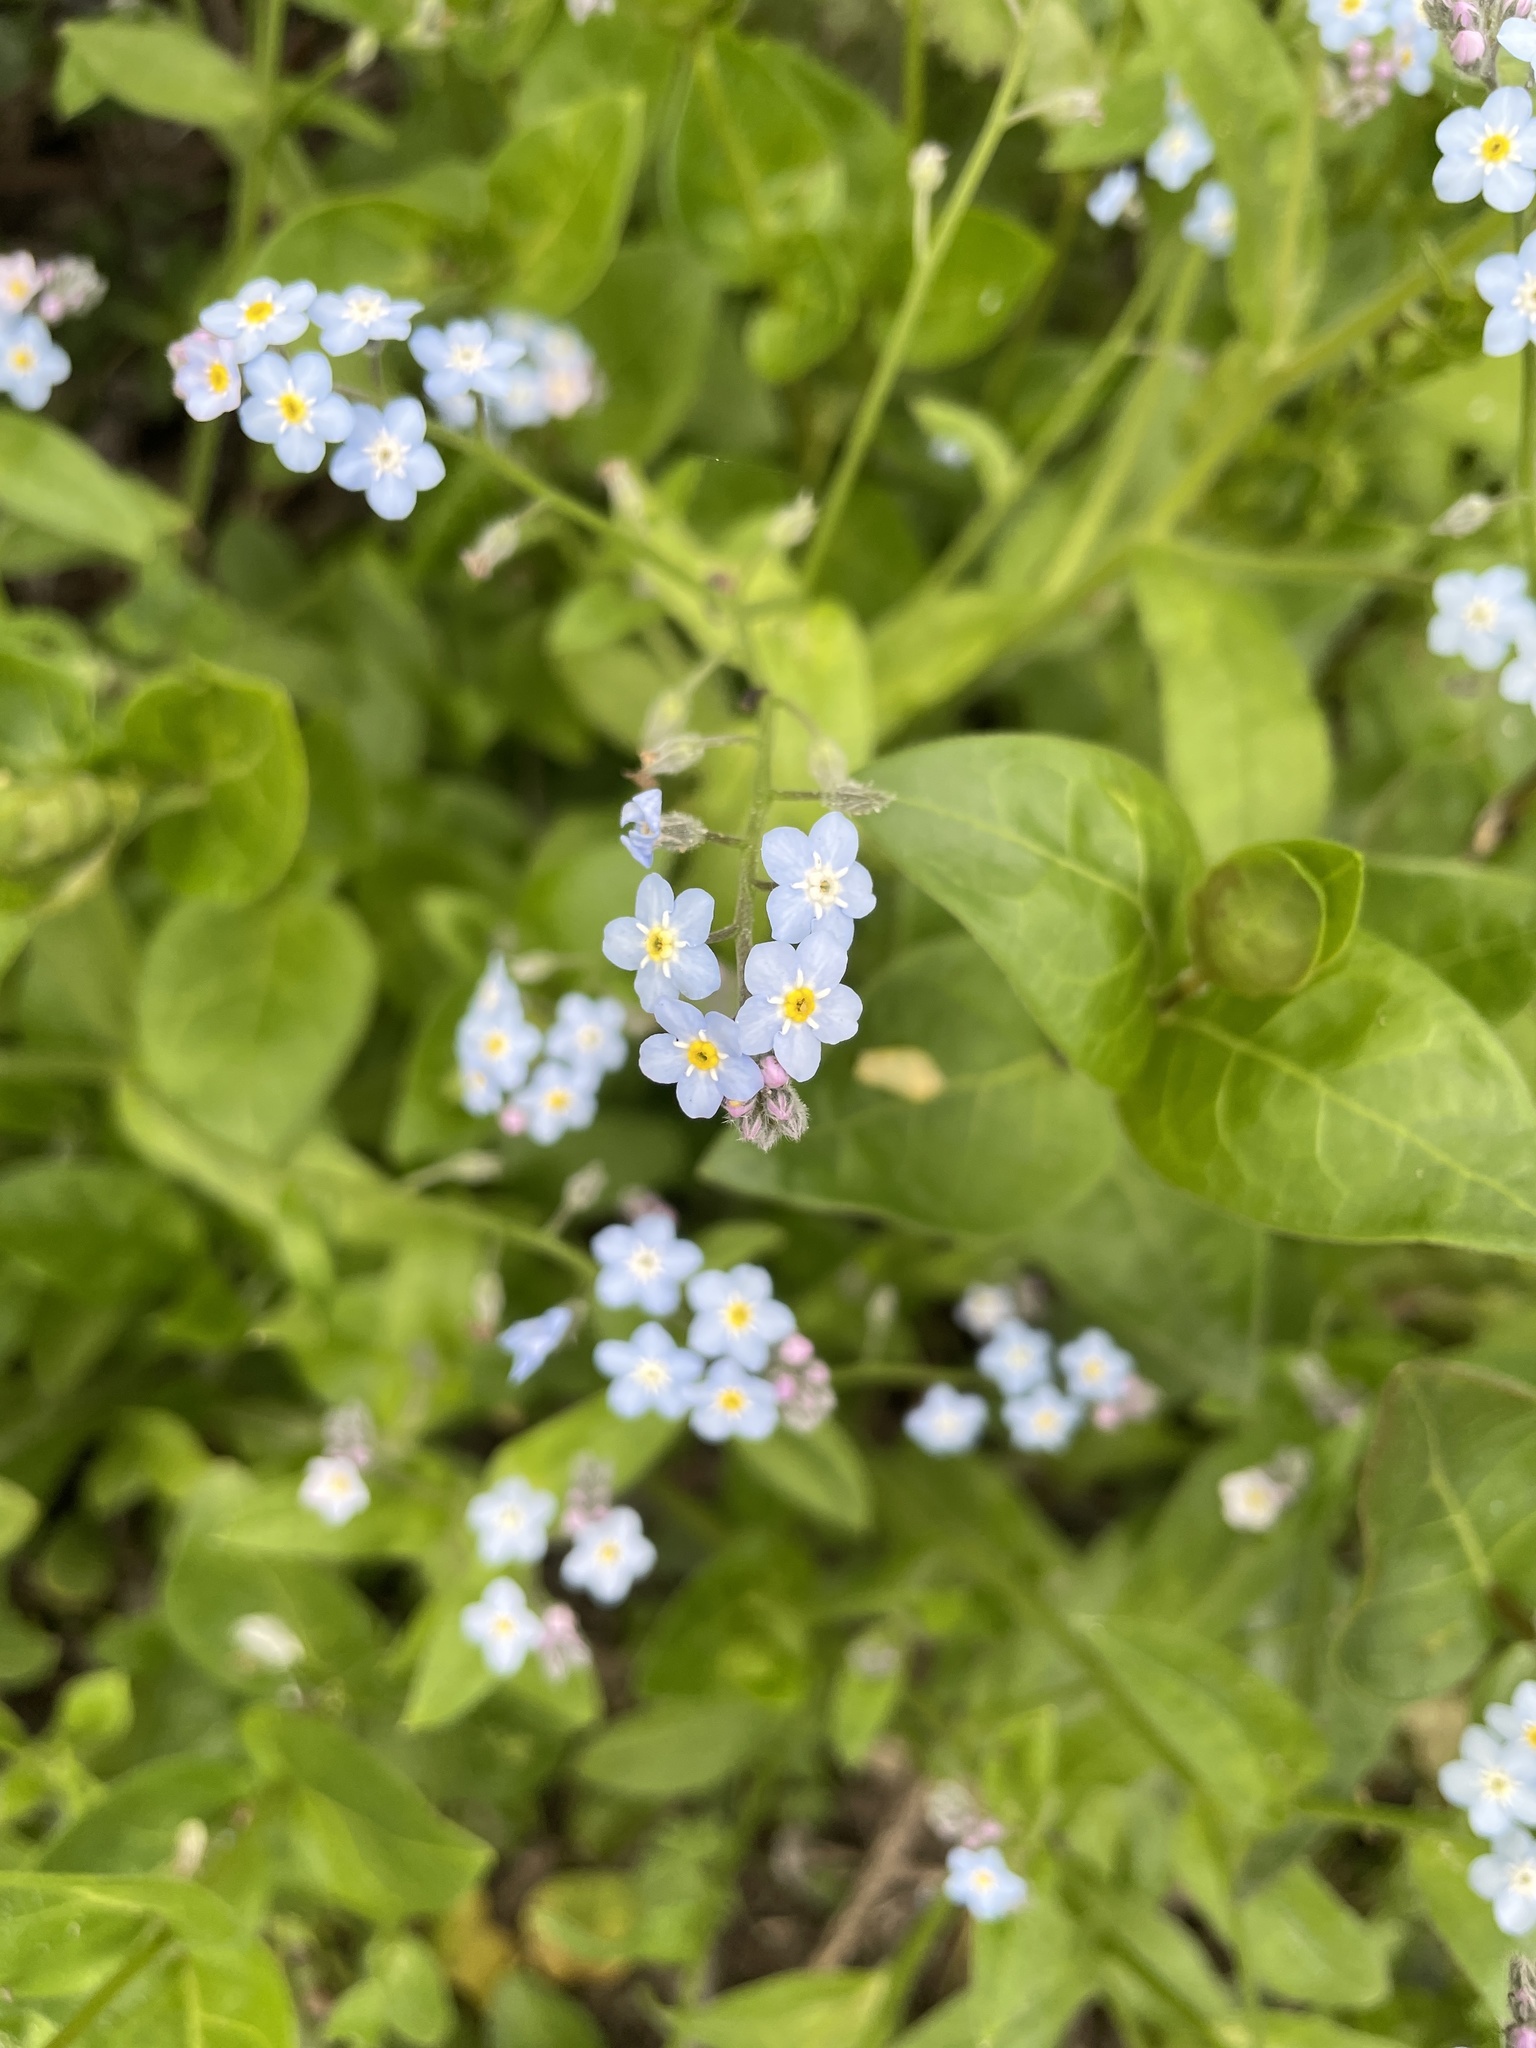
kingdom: Plantae
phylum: Tracheophyta
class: Magnoliopsida
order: Boraginales
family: Boraginaceae
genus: Myosotis
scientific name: Myosotis latifolia
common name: Broadleaf forget-me-not
